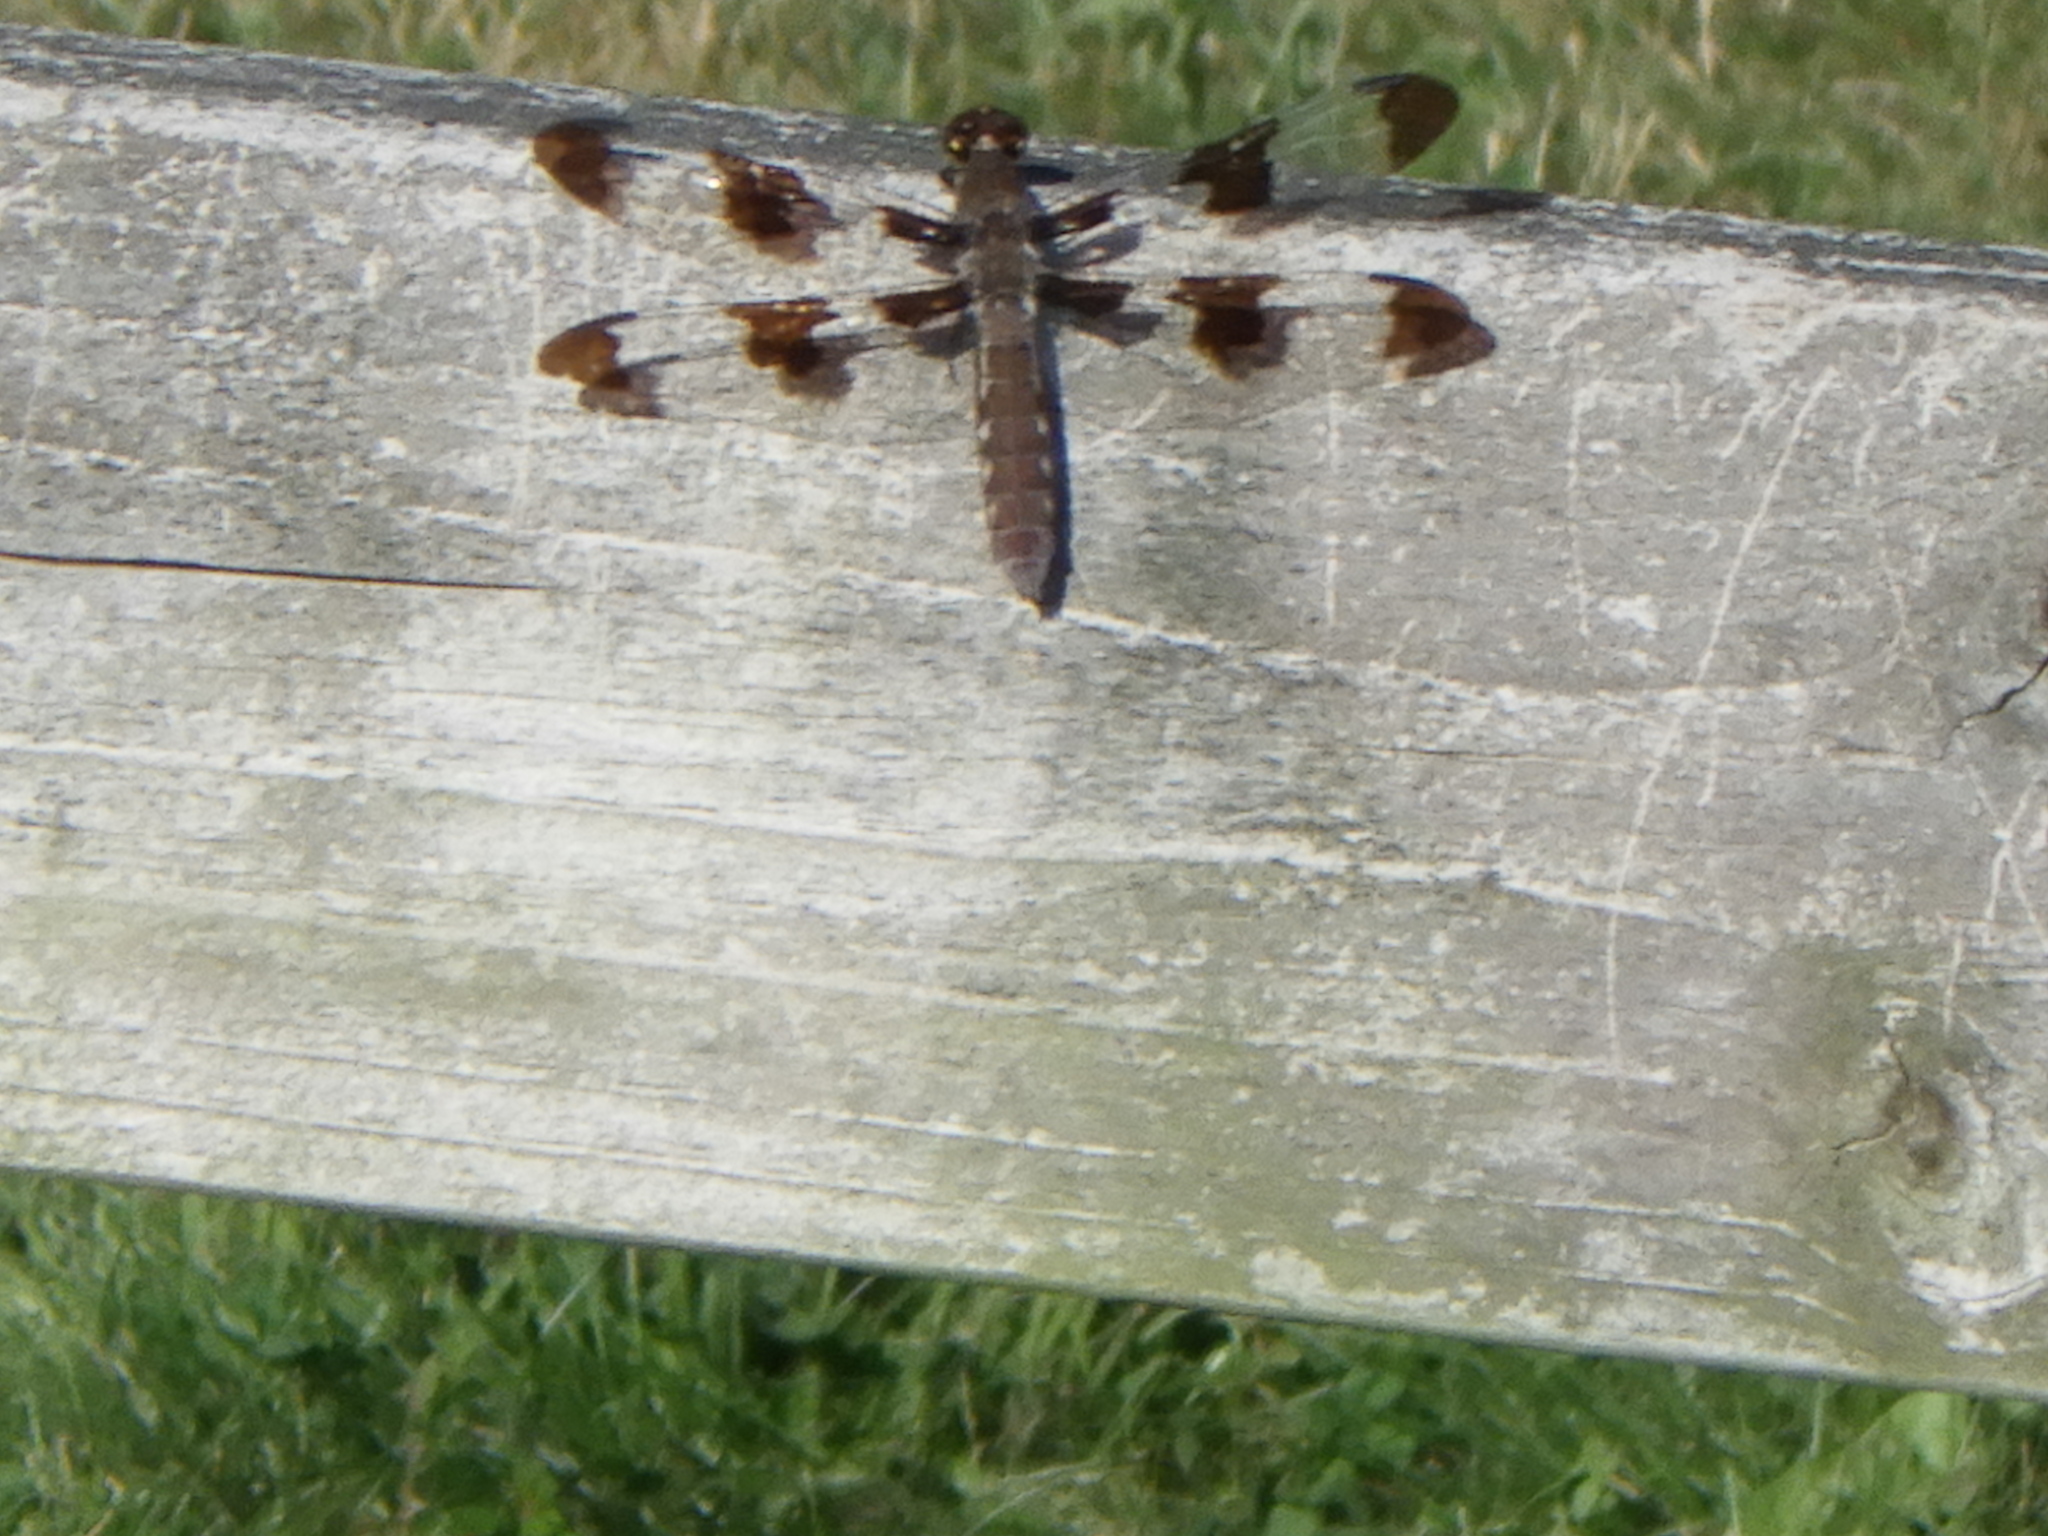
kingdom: Animalia
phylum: Arthropoda
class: Insecta
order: Odonata
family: Libellulidae
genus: Plathemis
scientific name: Plathemis lydia
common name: Common whitetail
